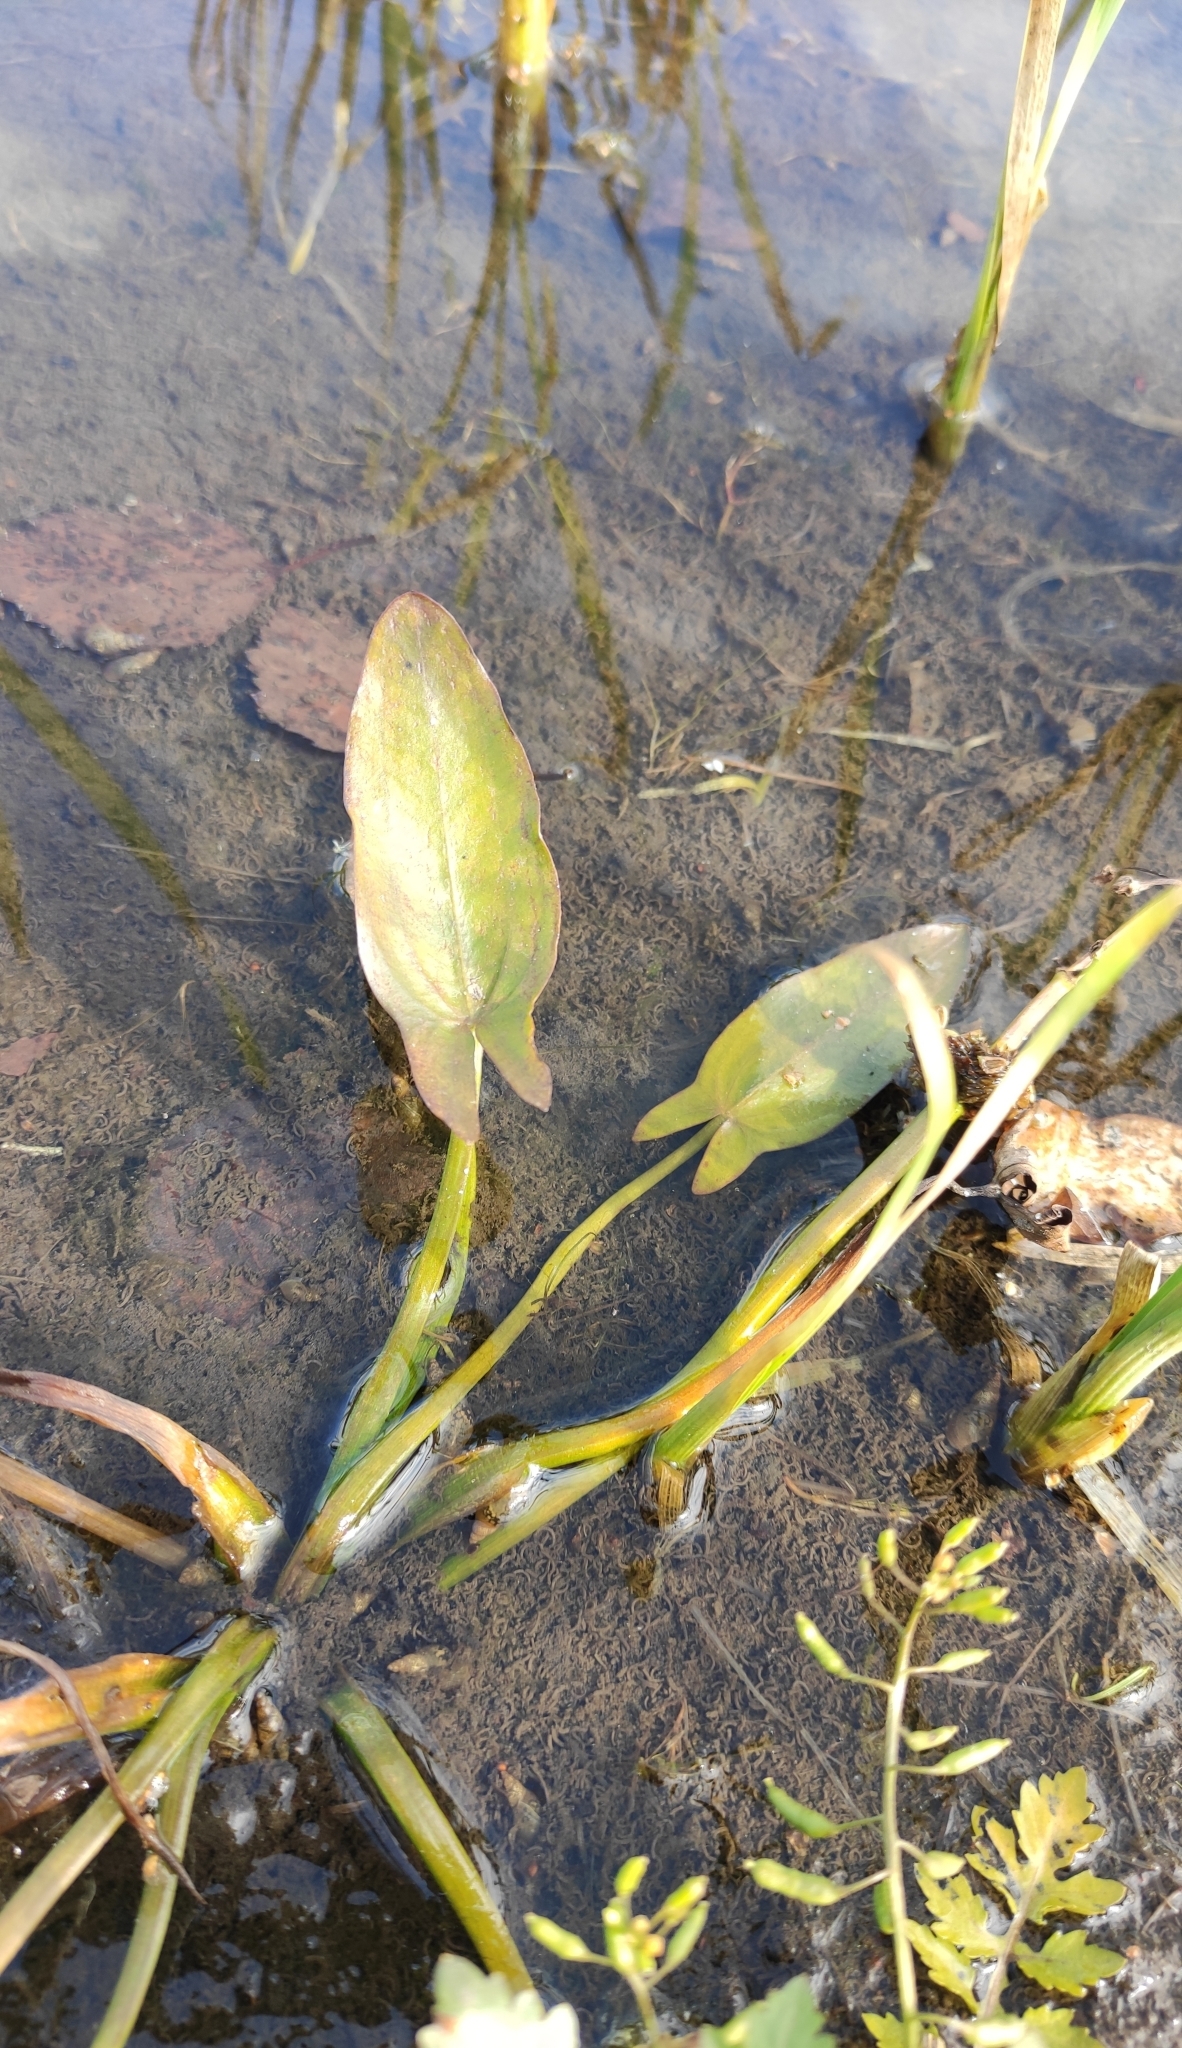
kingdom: Plantae
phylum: Tracheophyta
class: Liliopsida
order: Alismatales
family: Alismataceae
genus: Sagittaria
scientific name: Sagittaria natans
